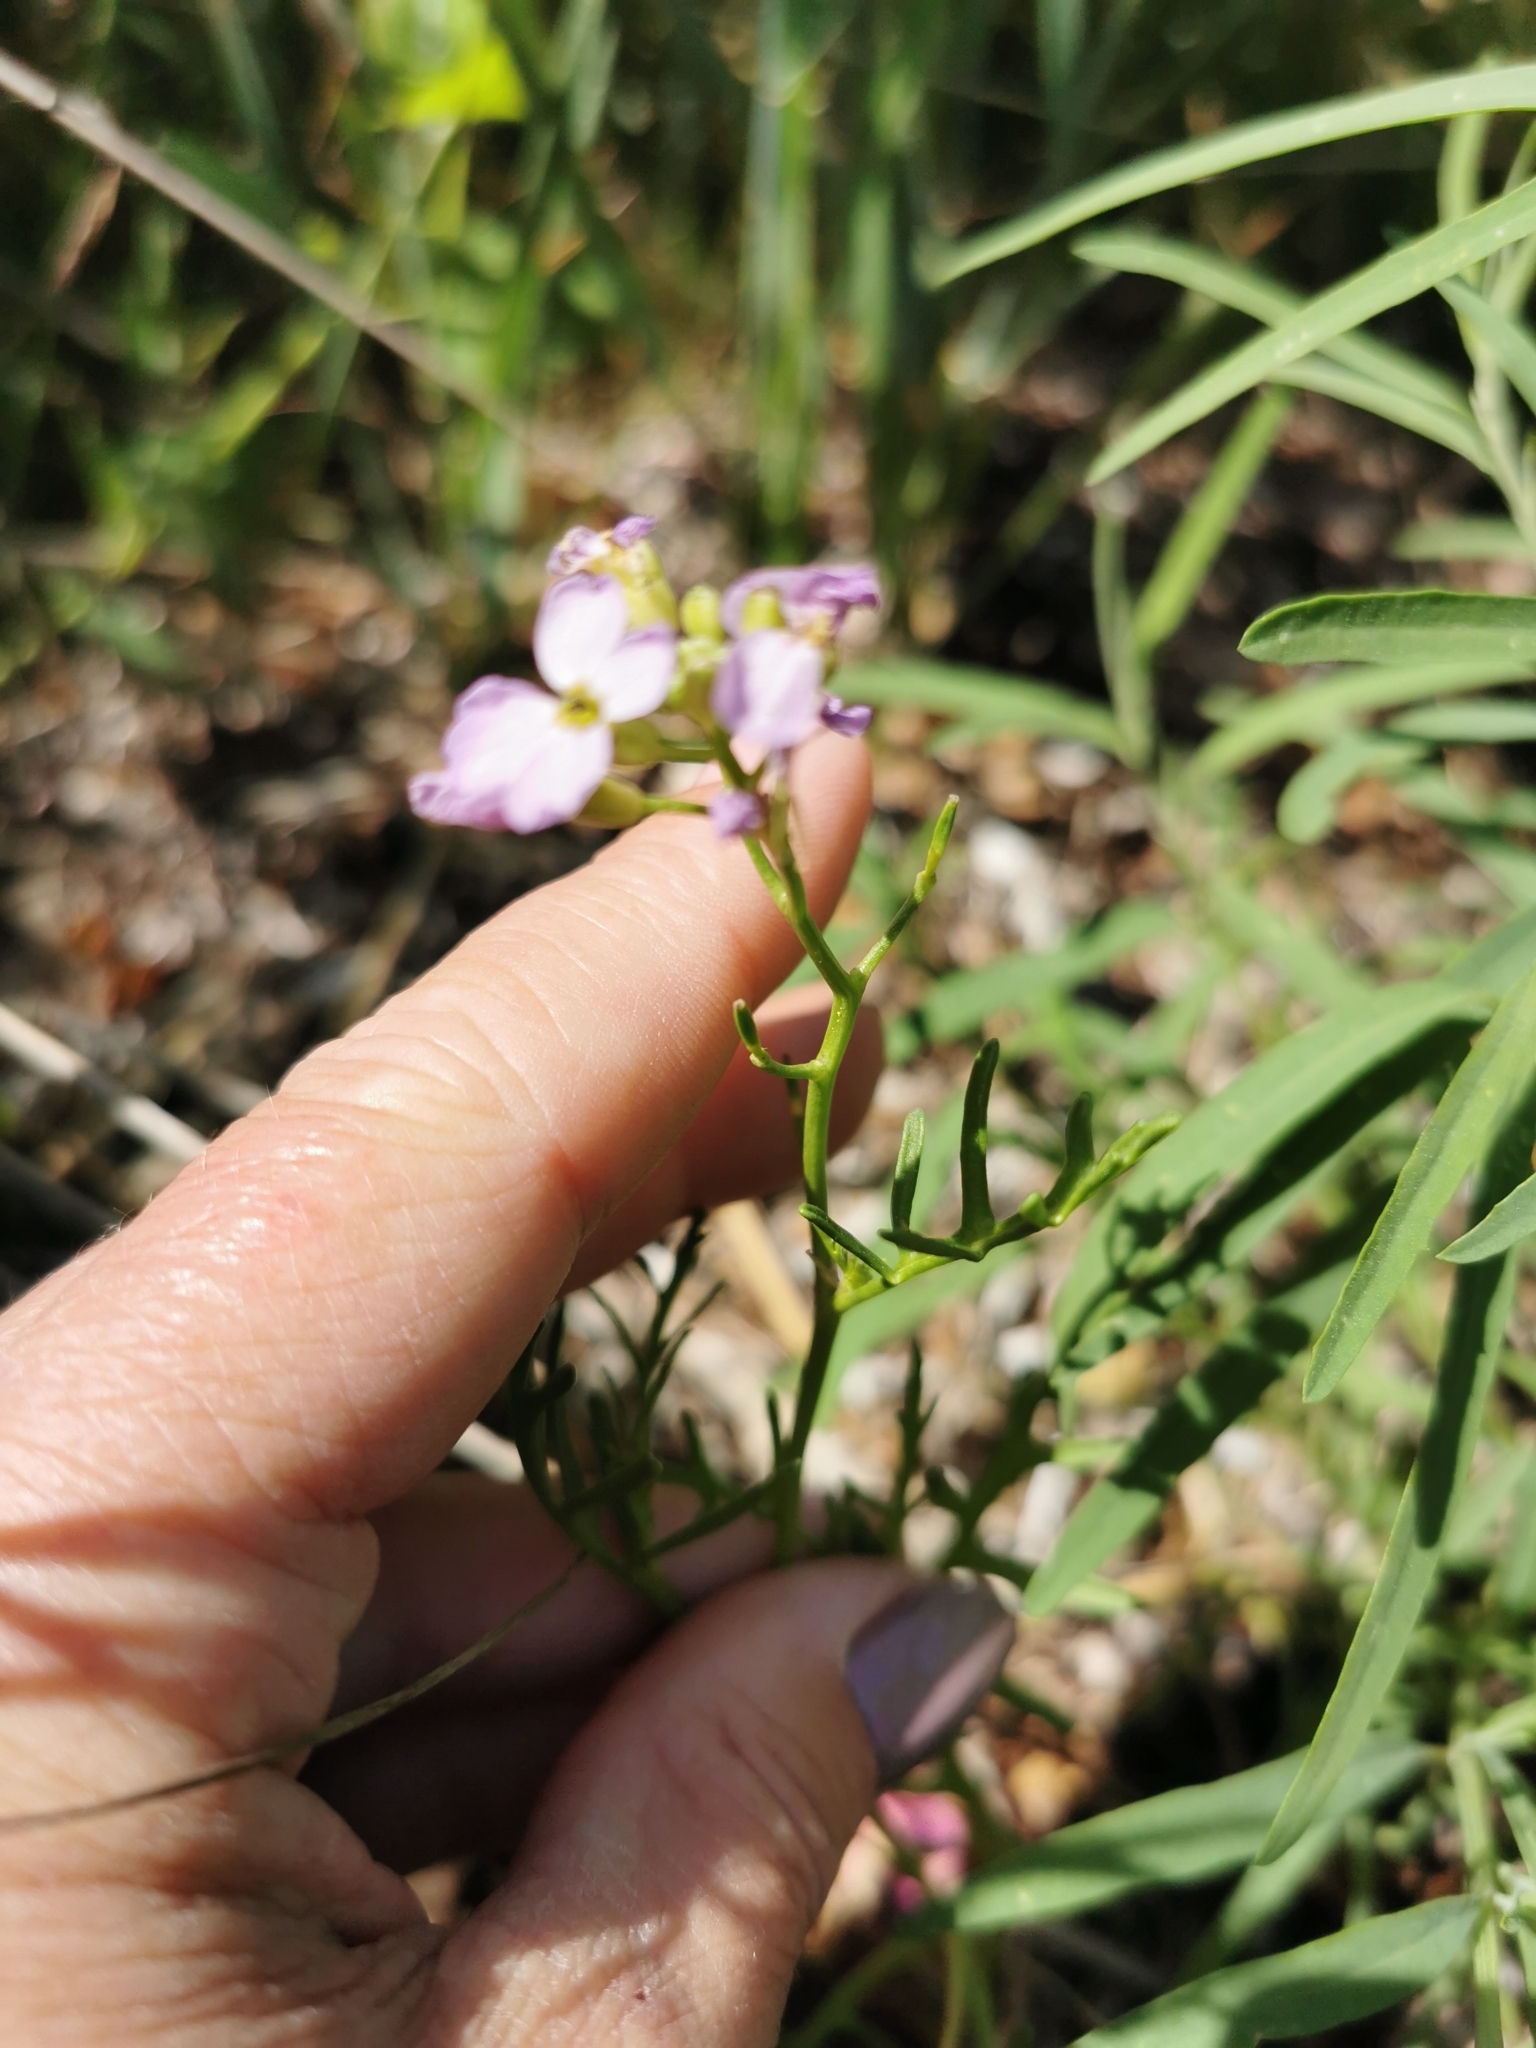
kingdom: Plantae
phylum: Tracheophyta
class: Magnoliopsida
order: Brassicales
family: Brassicaceae
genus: Cakile
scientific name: Cakile maritima
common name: Sea rocket
